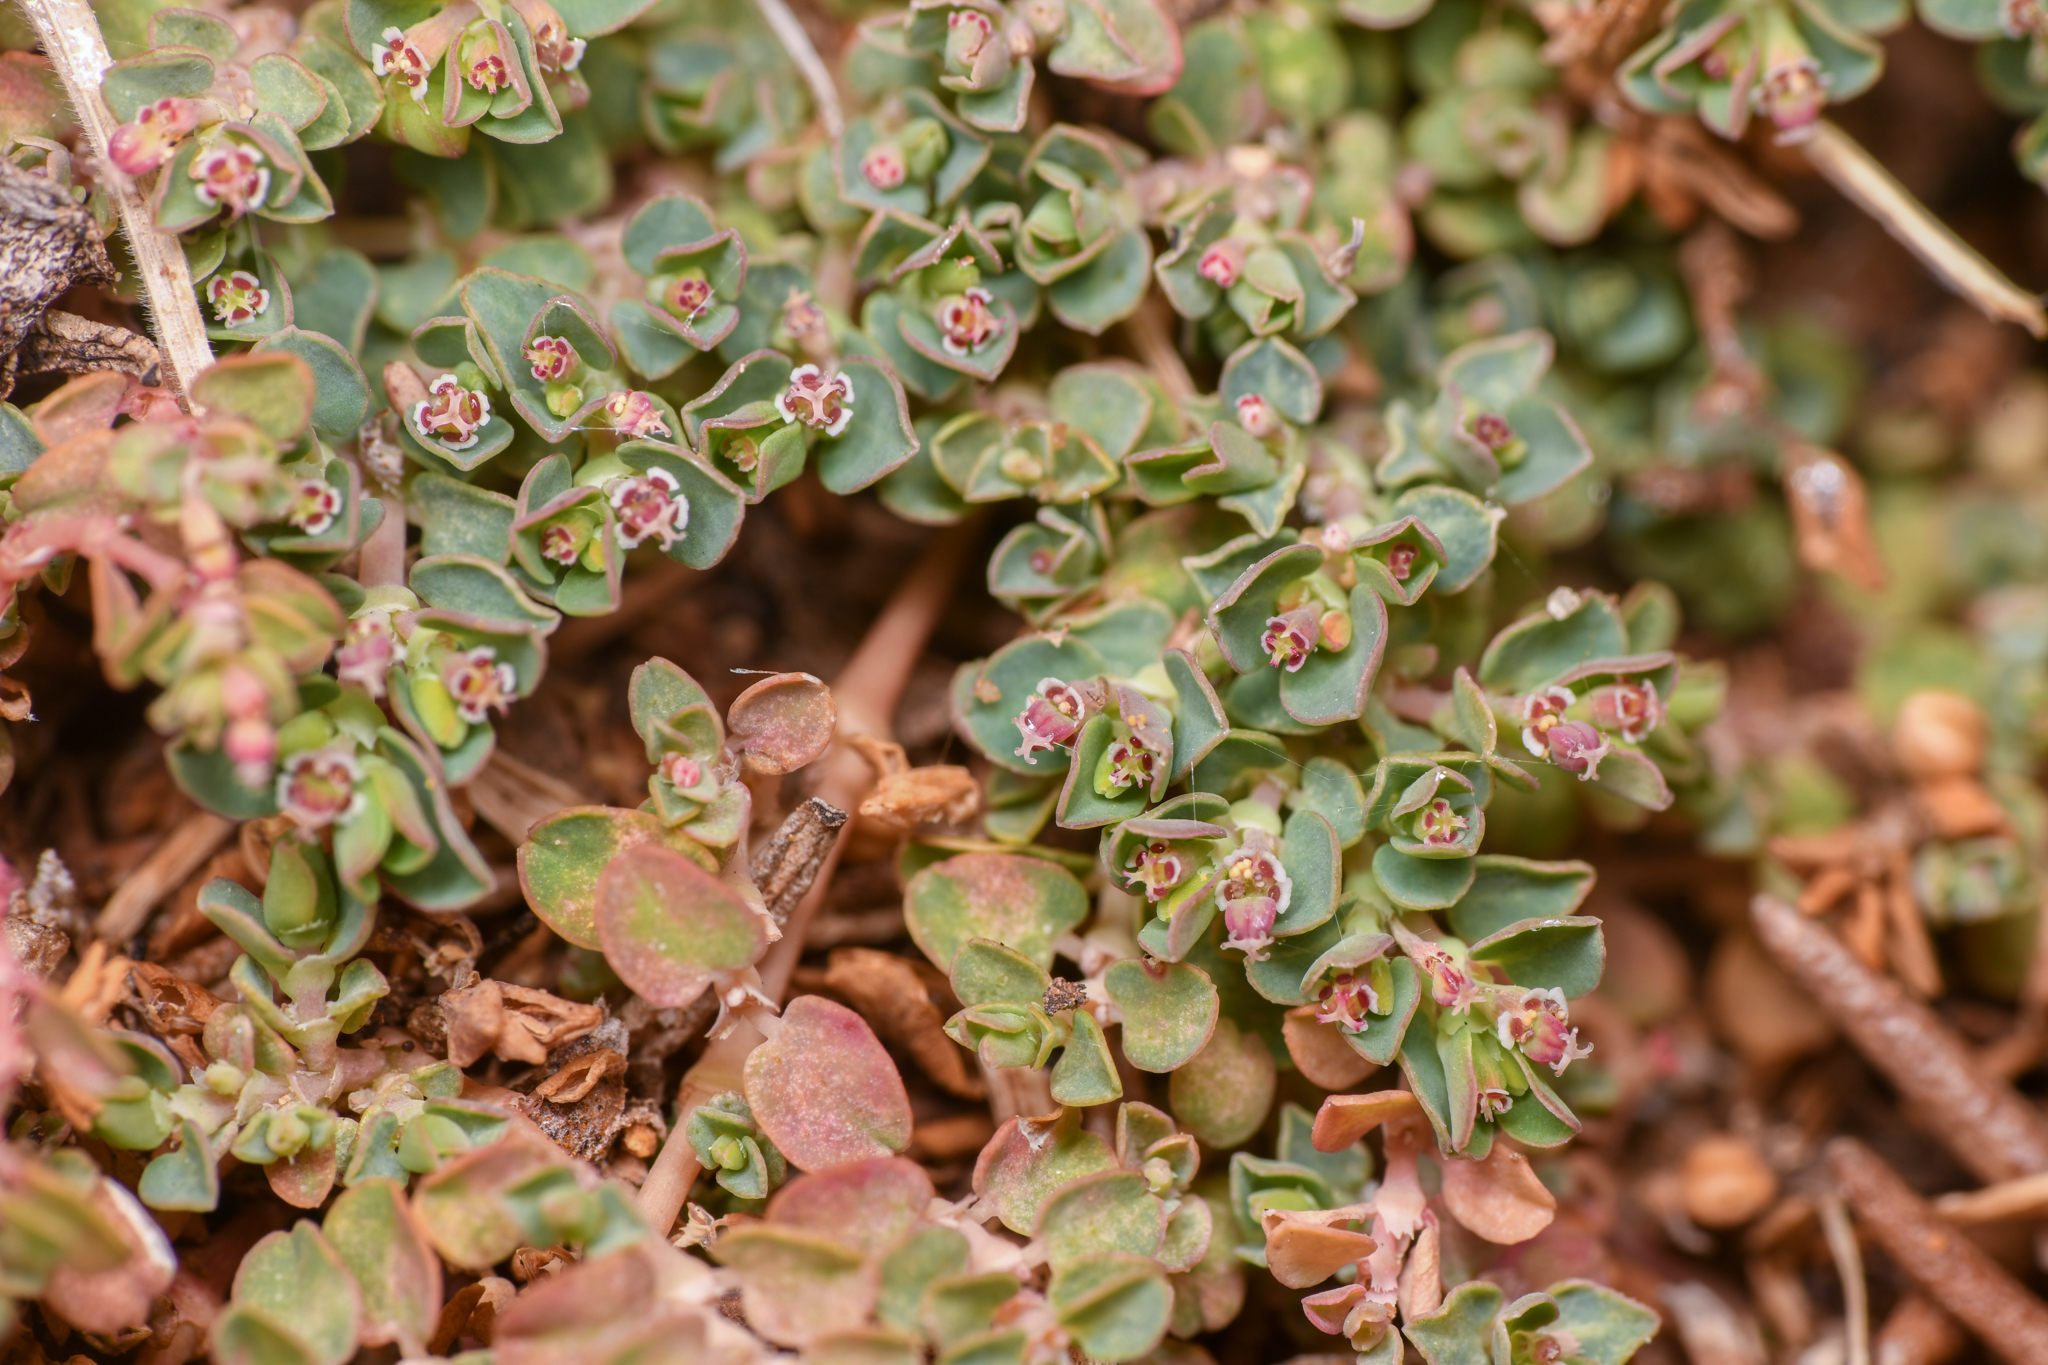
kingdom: Plantae
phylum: Tracheophyta
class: Magnoliopsida
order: Malpighiales
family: Euphorbiaceae
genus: Euphorbia
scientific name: Euphorbia serpens
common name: Matted sandmat
